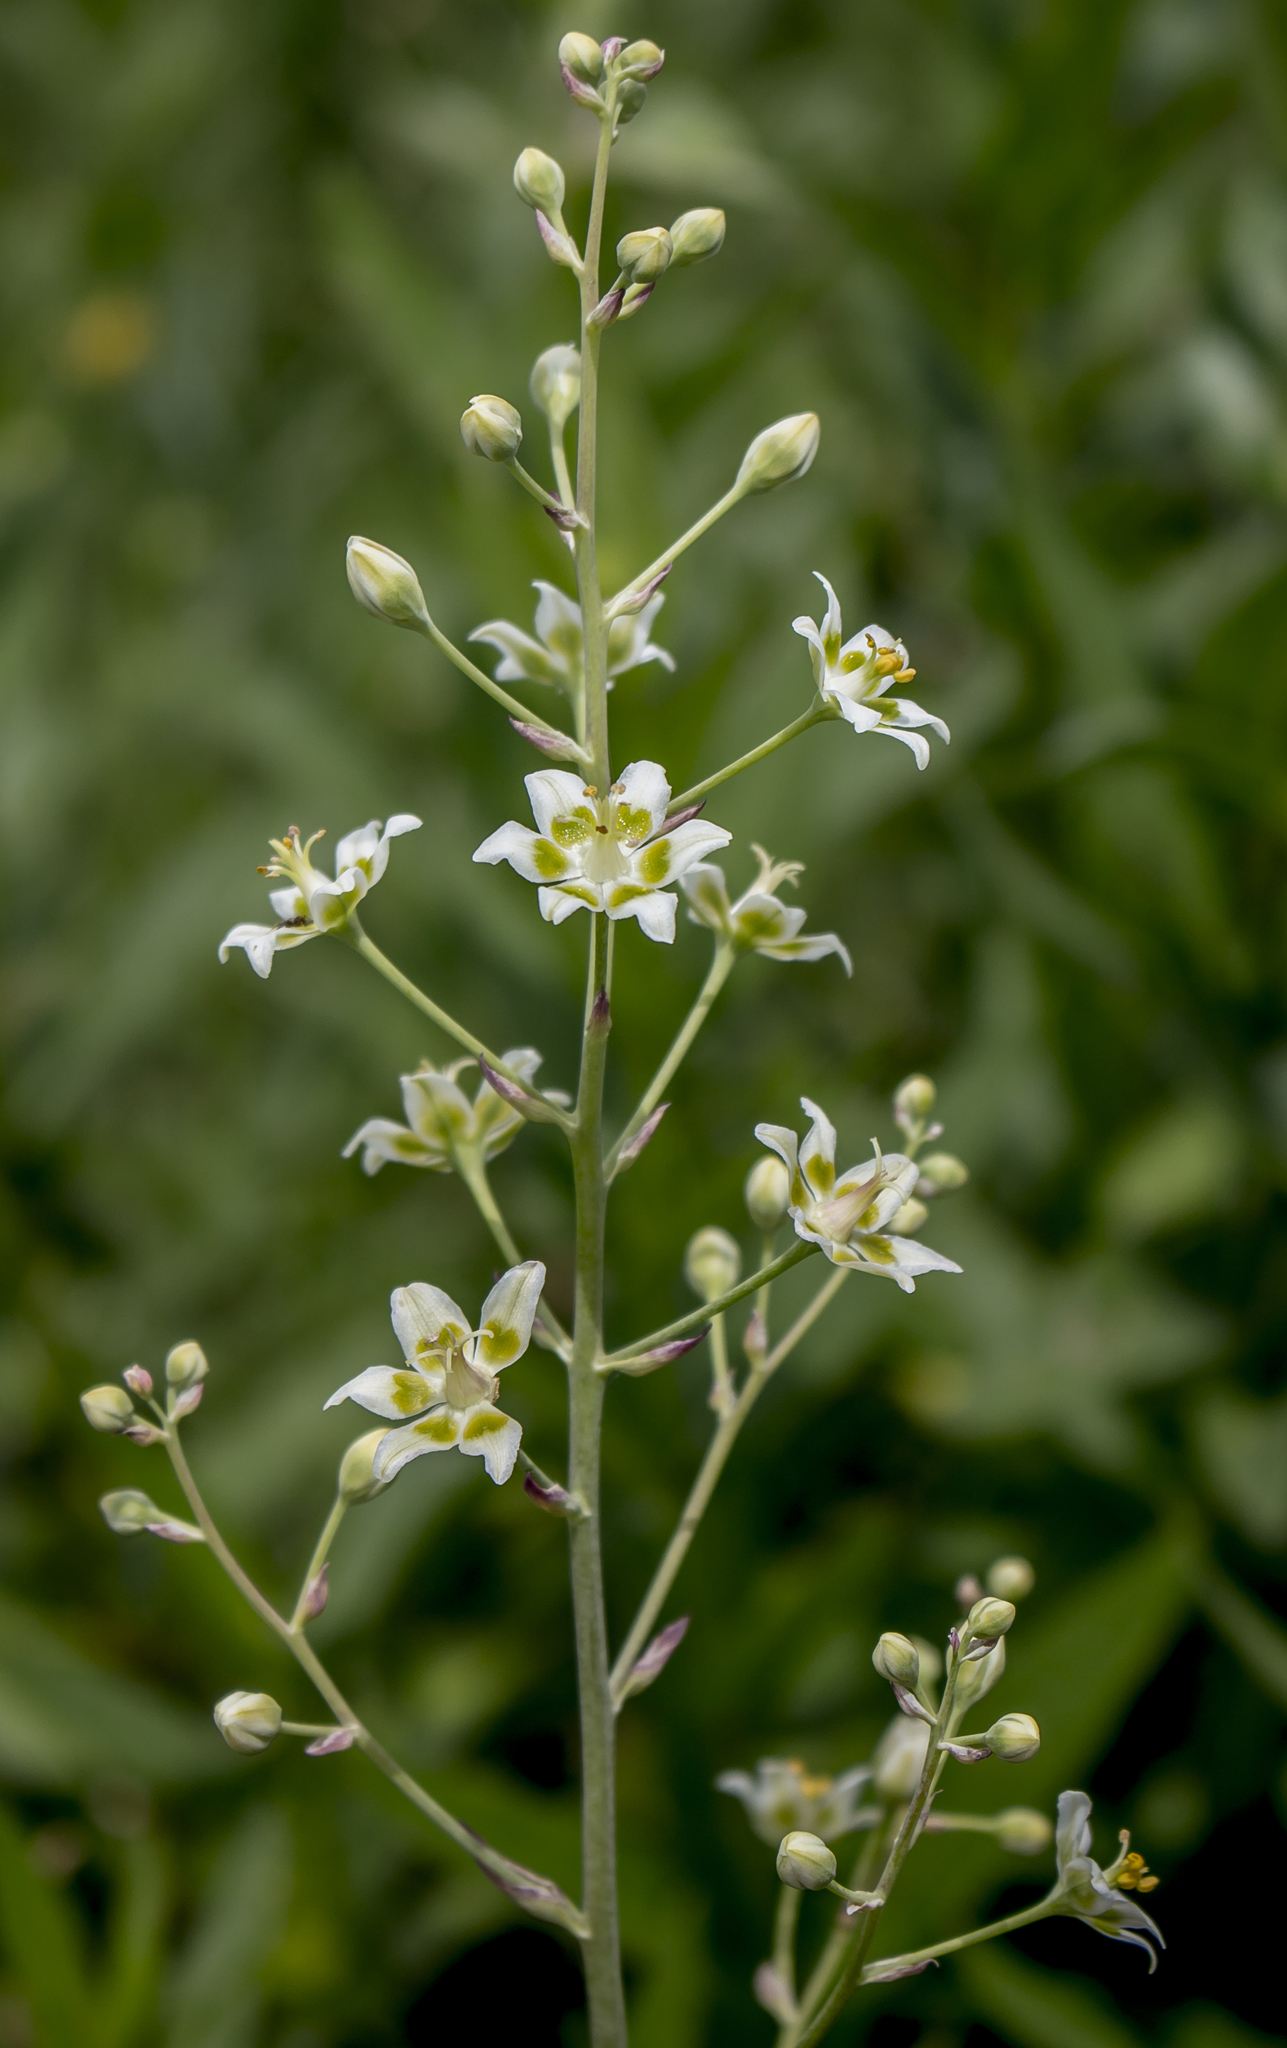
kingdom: Plantae
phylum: Tracheophyta
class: Liliopsida
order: Liliales
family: Melanthiaceae
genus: Anticlea
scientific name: Anticlea elegans
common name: Mountain death camas
